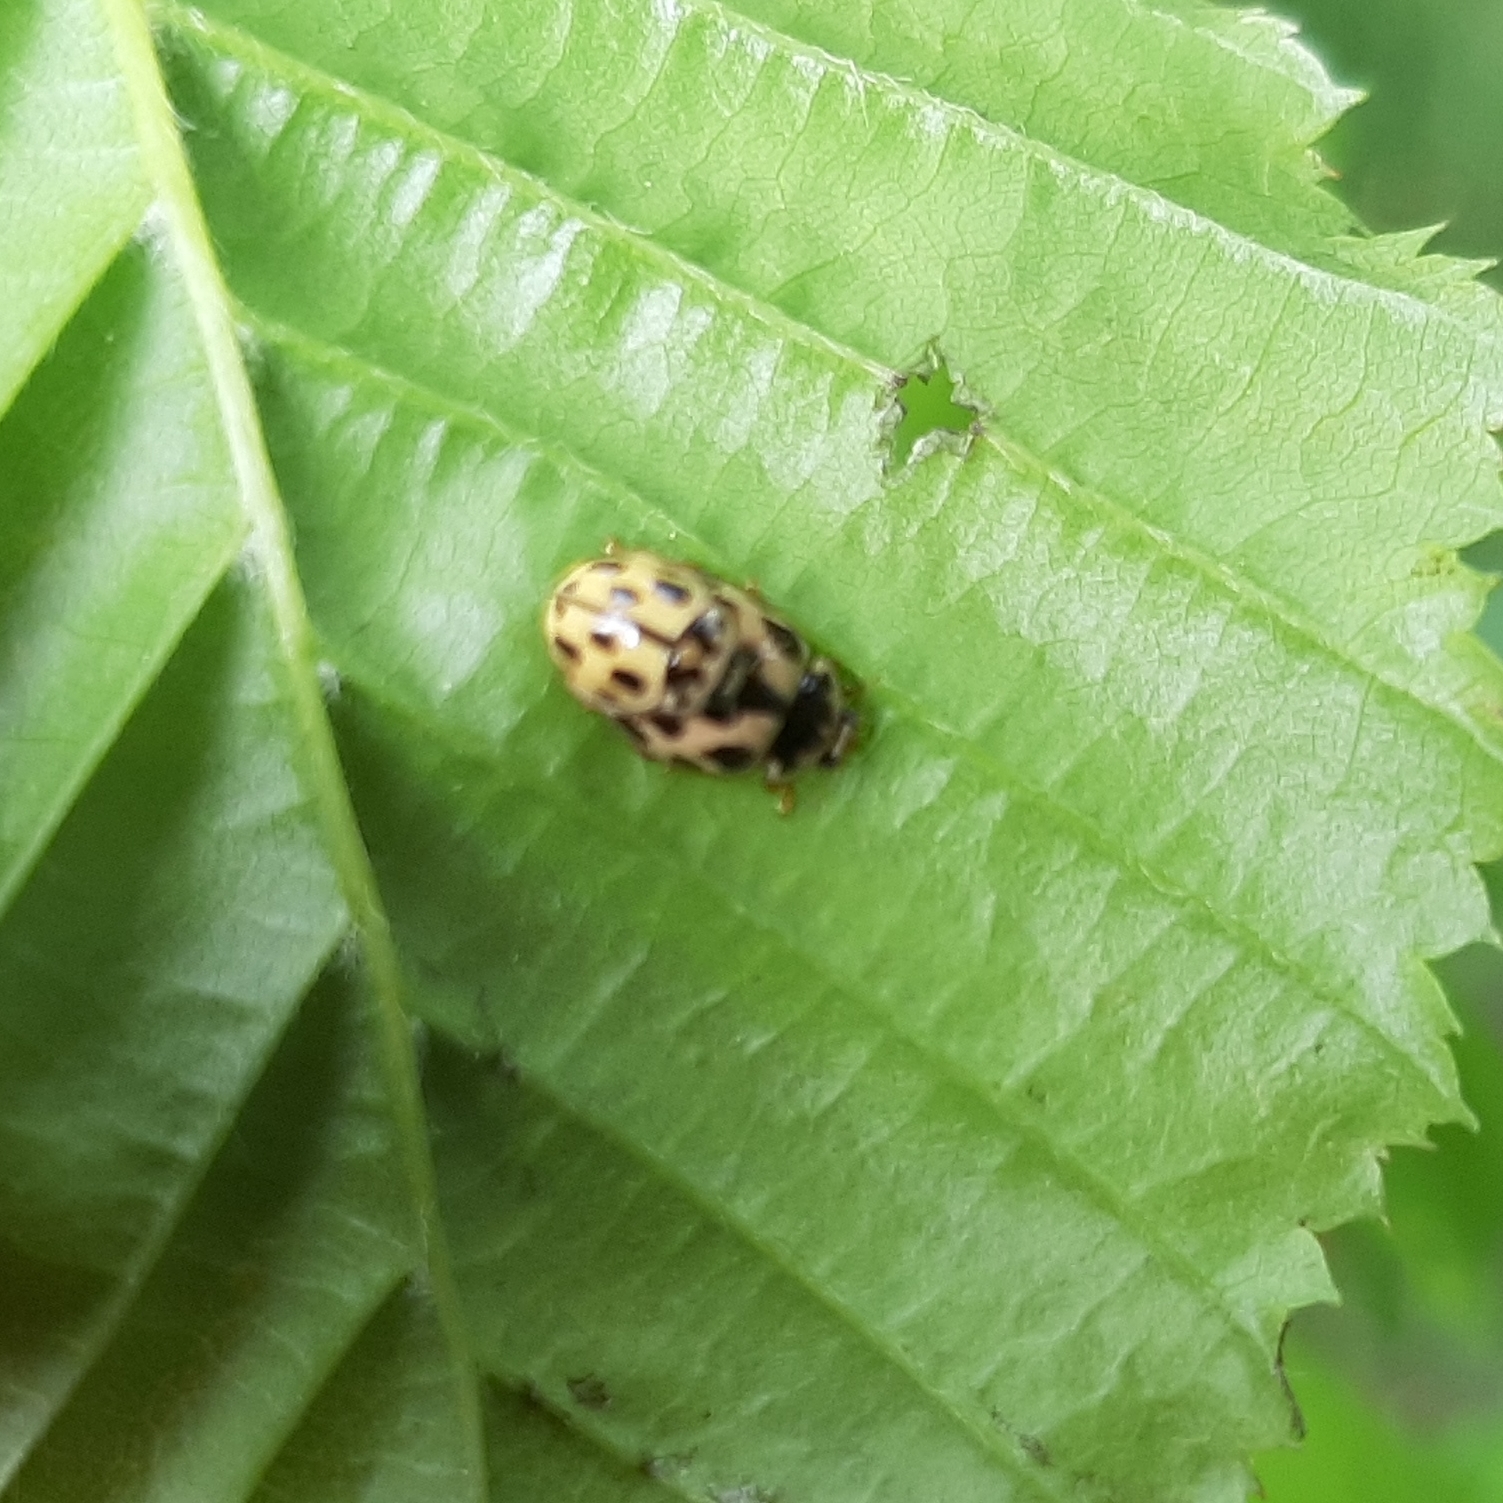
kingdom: Animalia
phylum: Arthropoda
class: Insecta
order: Coleoptera
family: Coccinellidae
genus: Propylaea
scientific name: Propylaea quatuordecimpunctata
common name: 14-spotted ladybird beetle
